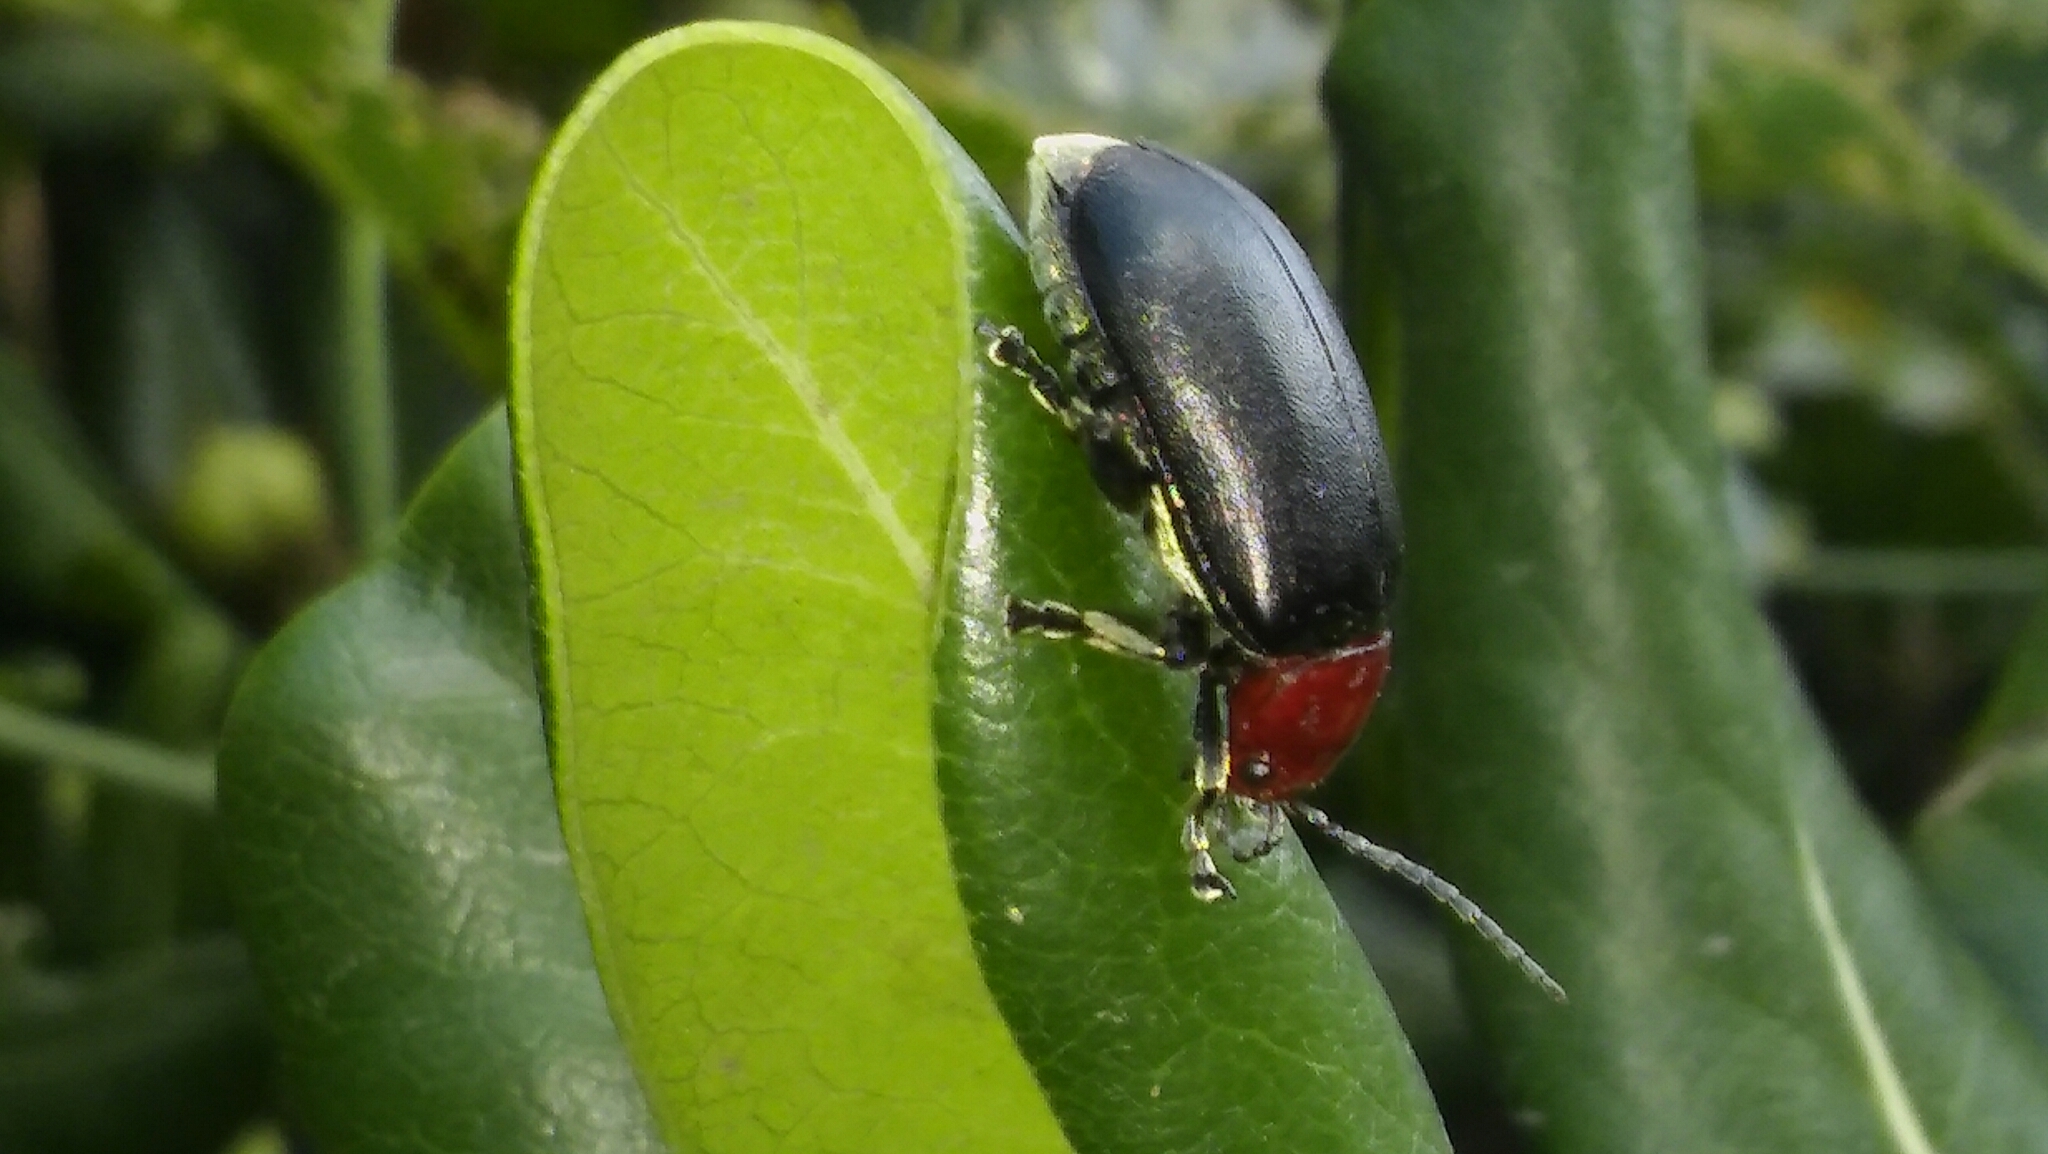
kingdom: Animalia
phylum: Arthropoda
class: Insecta
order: Coleoptera
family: Chrysomelidae
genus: Cacoscelis
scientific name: Cacoscelis
